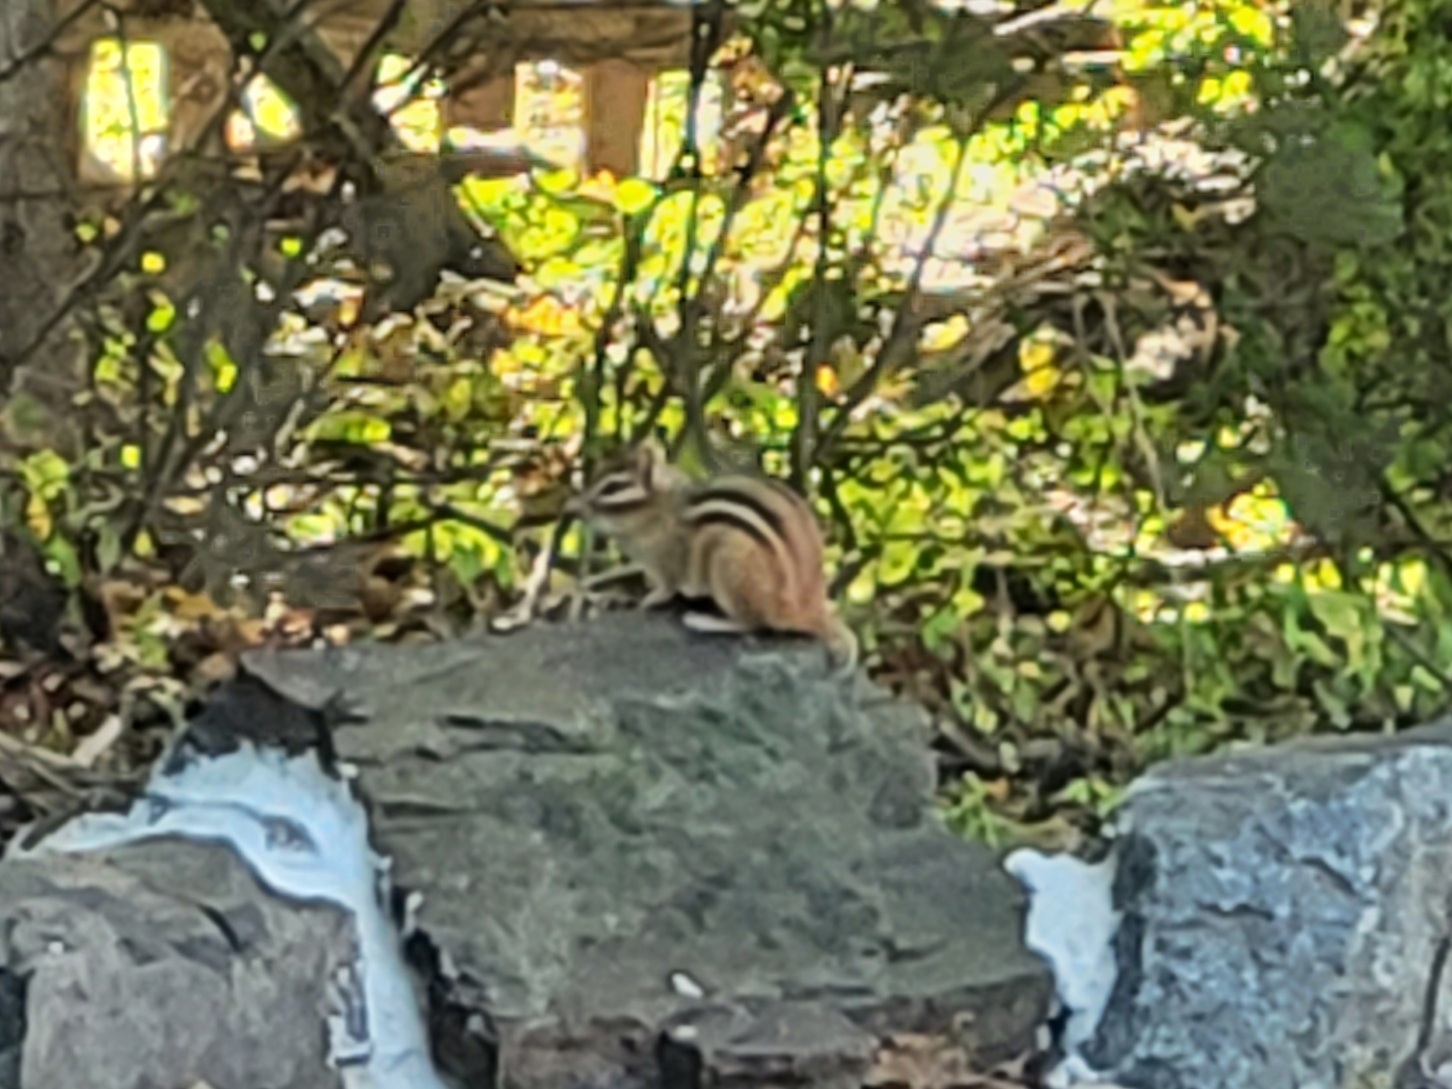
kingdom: Animalia
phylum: Chordata
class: Mammalia
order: Rodentia
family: Sciuridae
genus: Tamias
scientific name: Tamias striatus
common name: Eastern chipmunk
